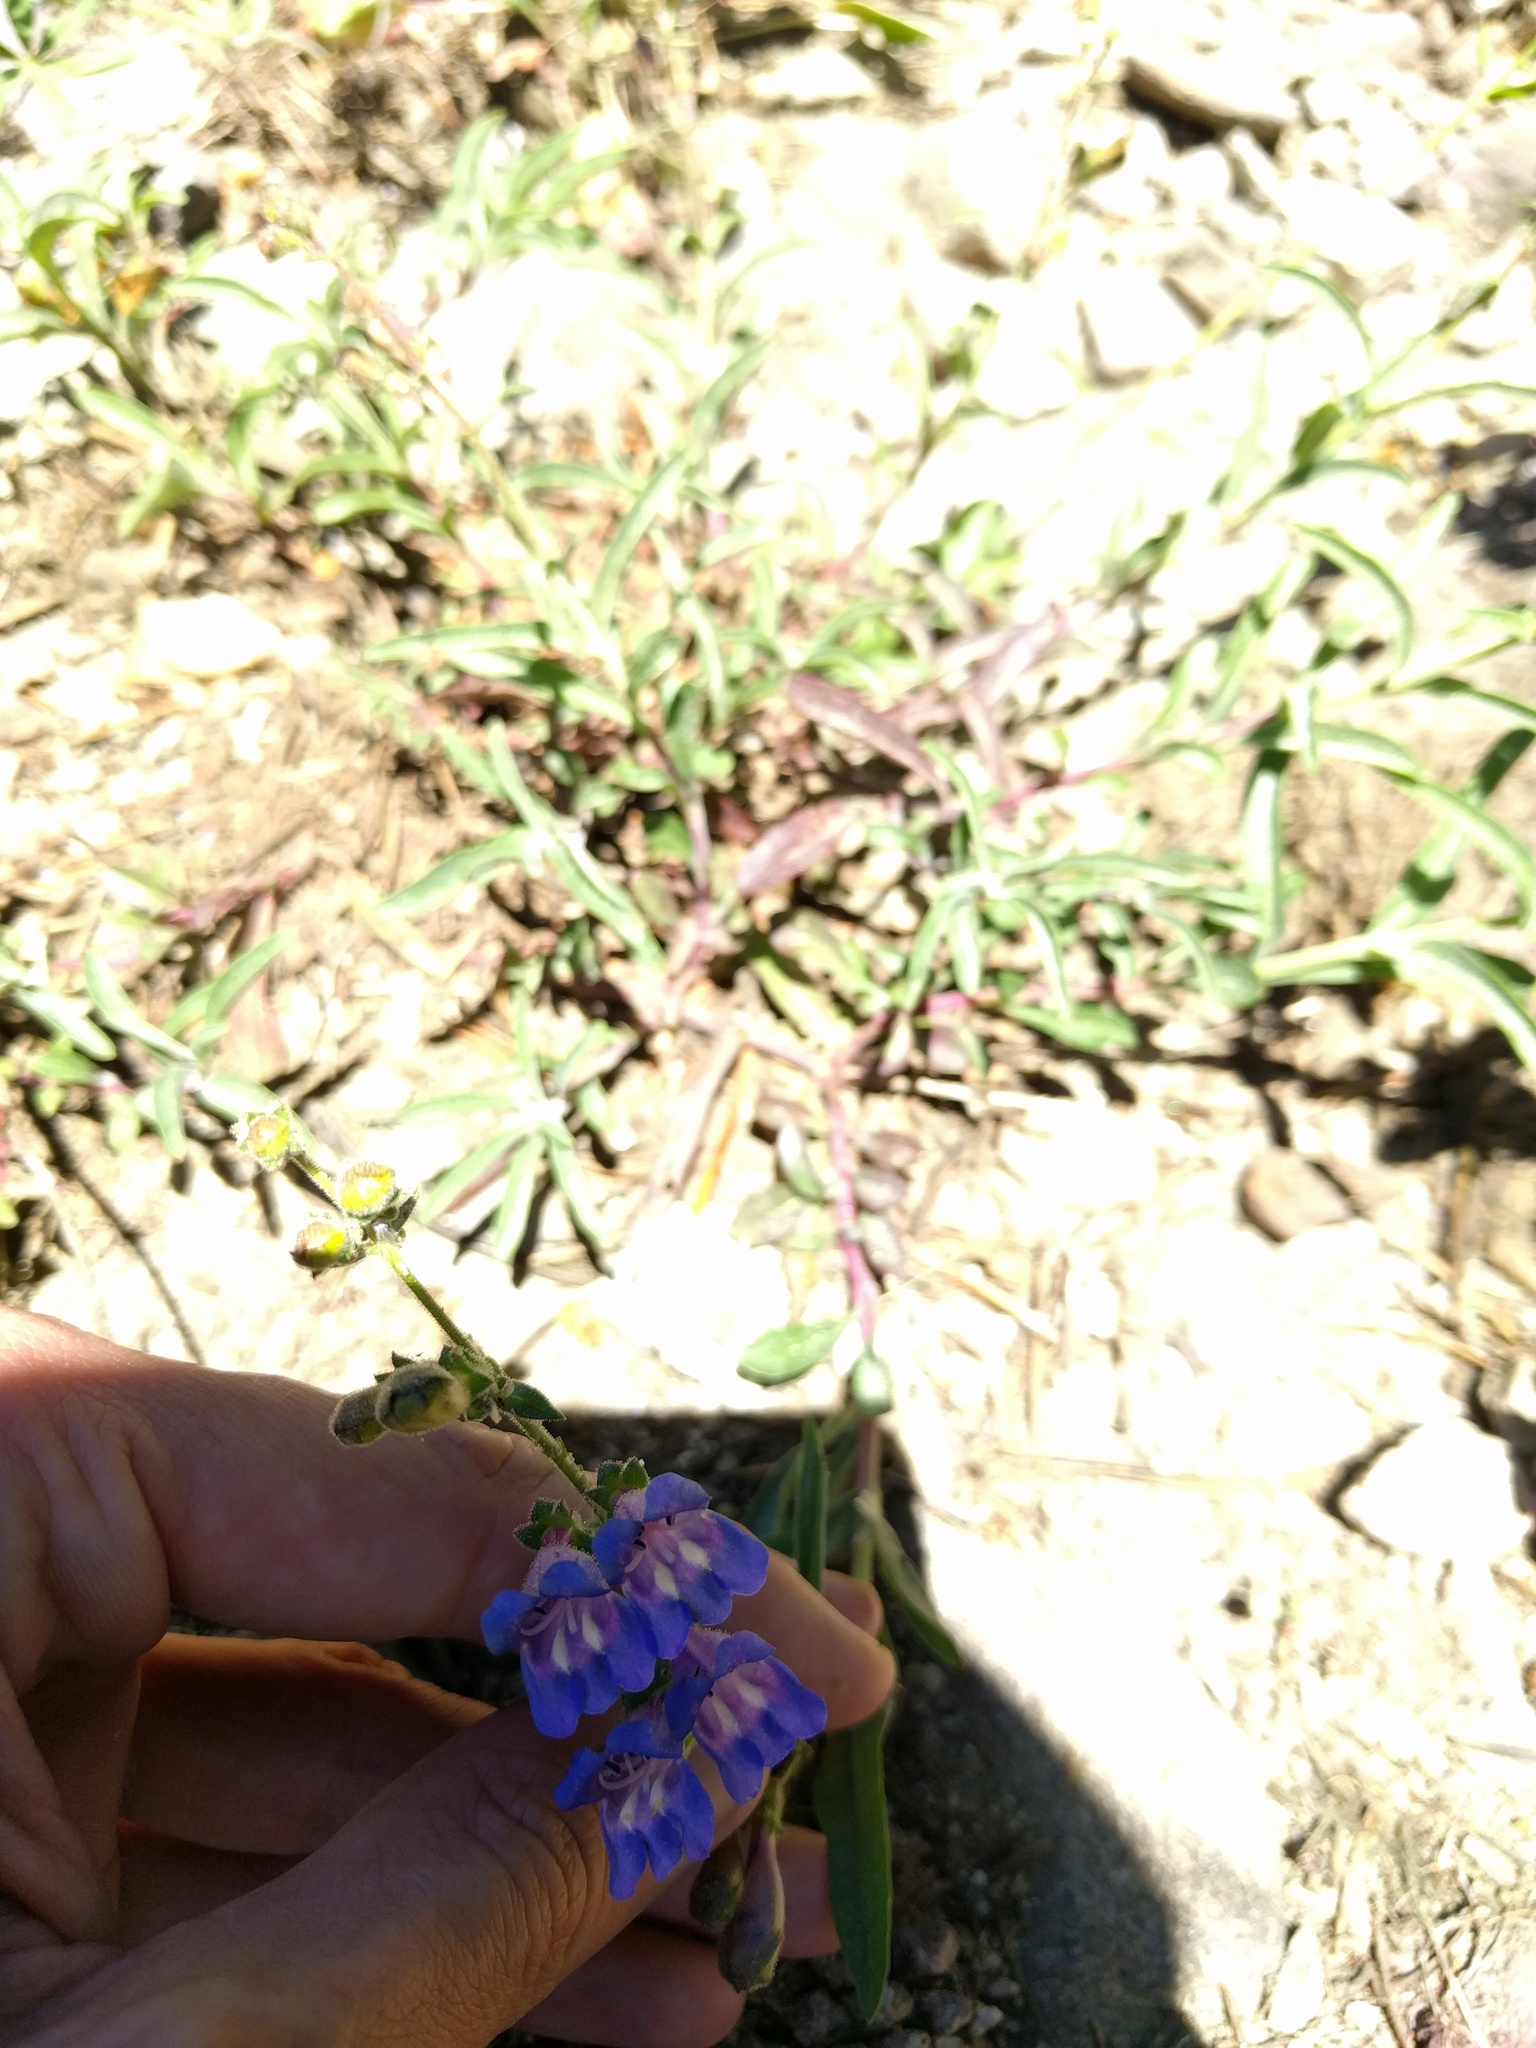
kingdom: Plantae
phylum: Tracheophyta
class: Magnoliopsida
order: Lamiales
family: Plantaginaceae
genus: Penstemon
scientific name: Penstemon speciosus
